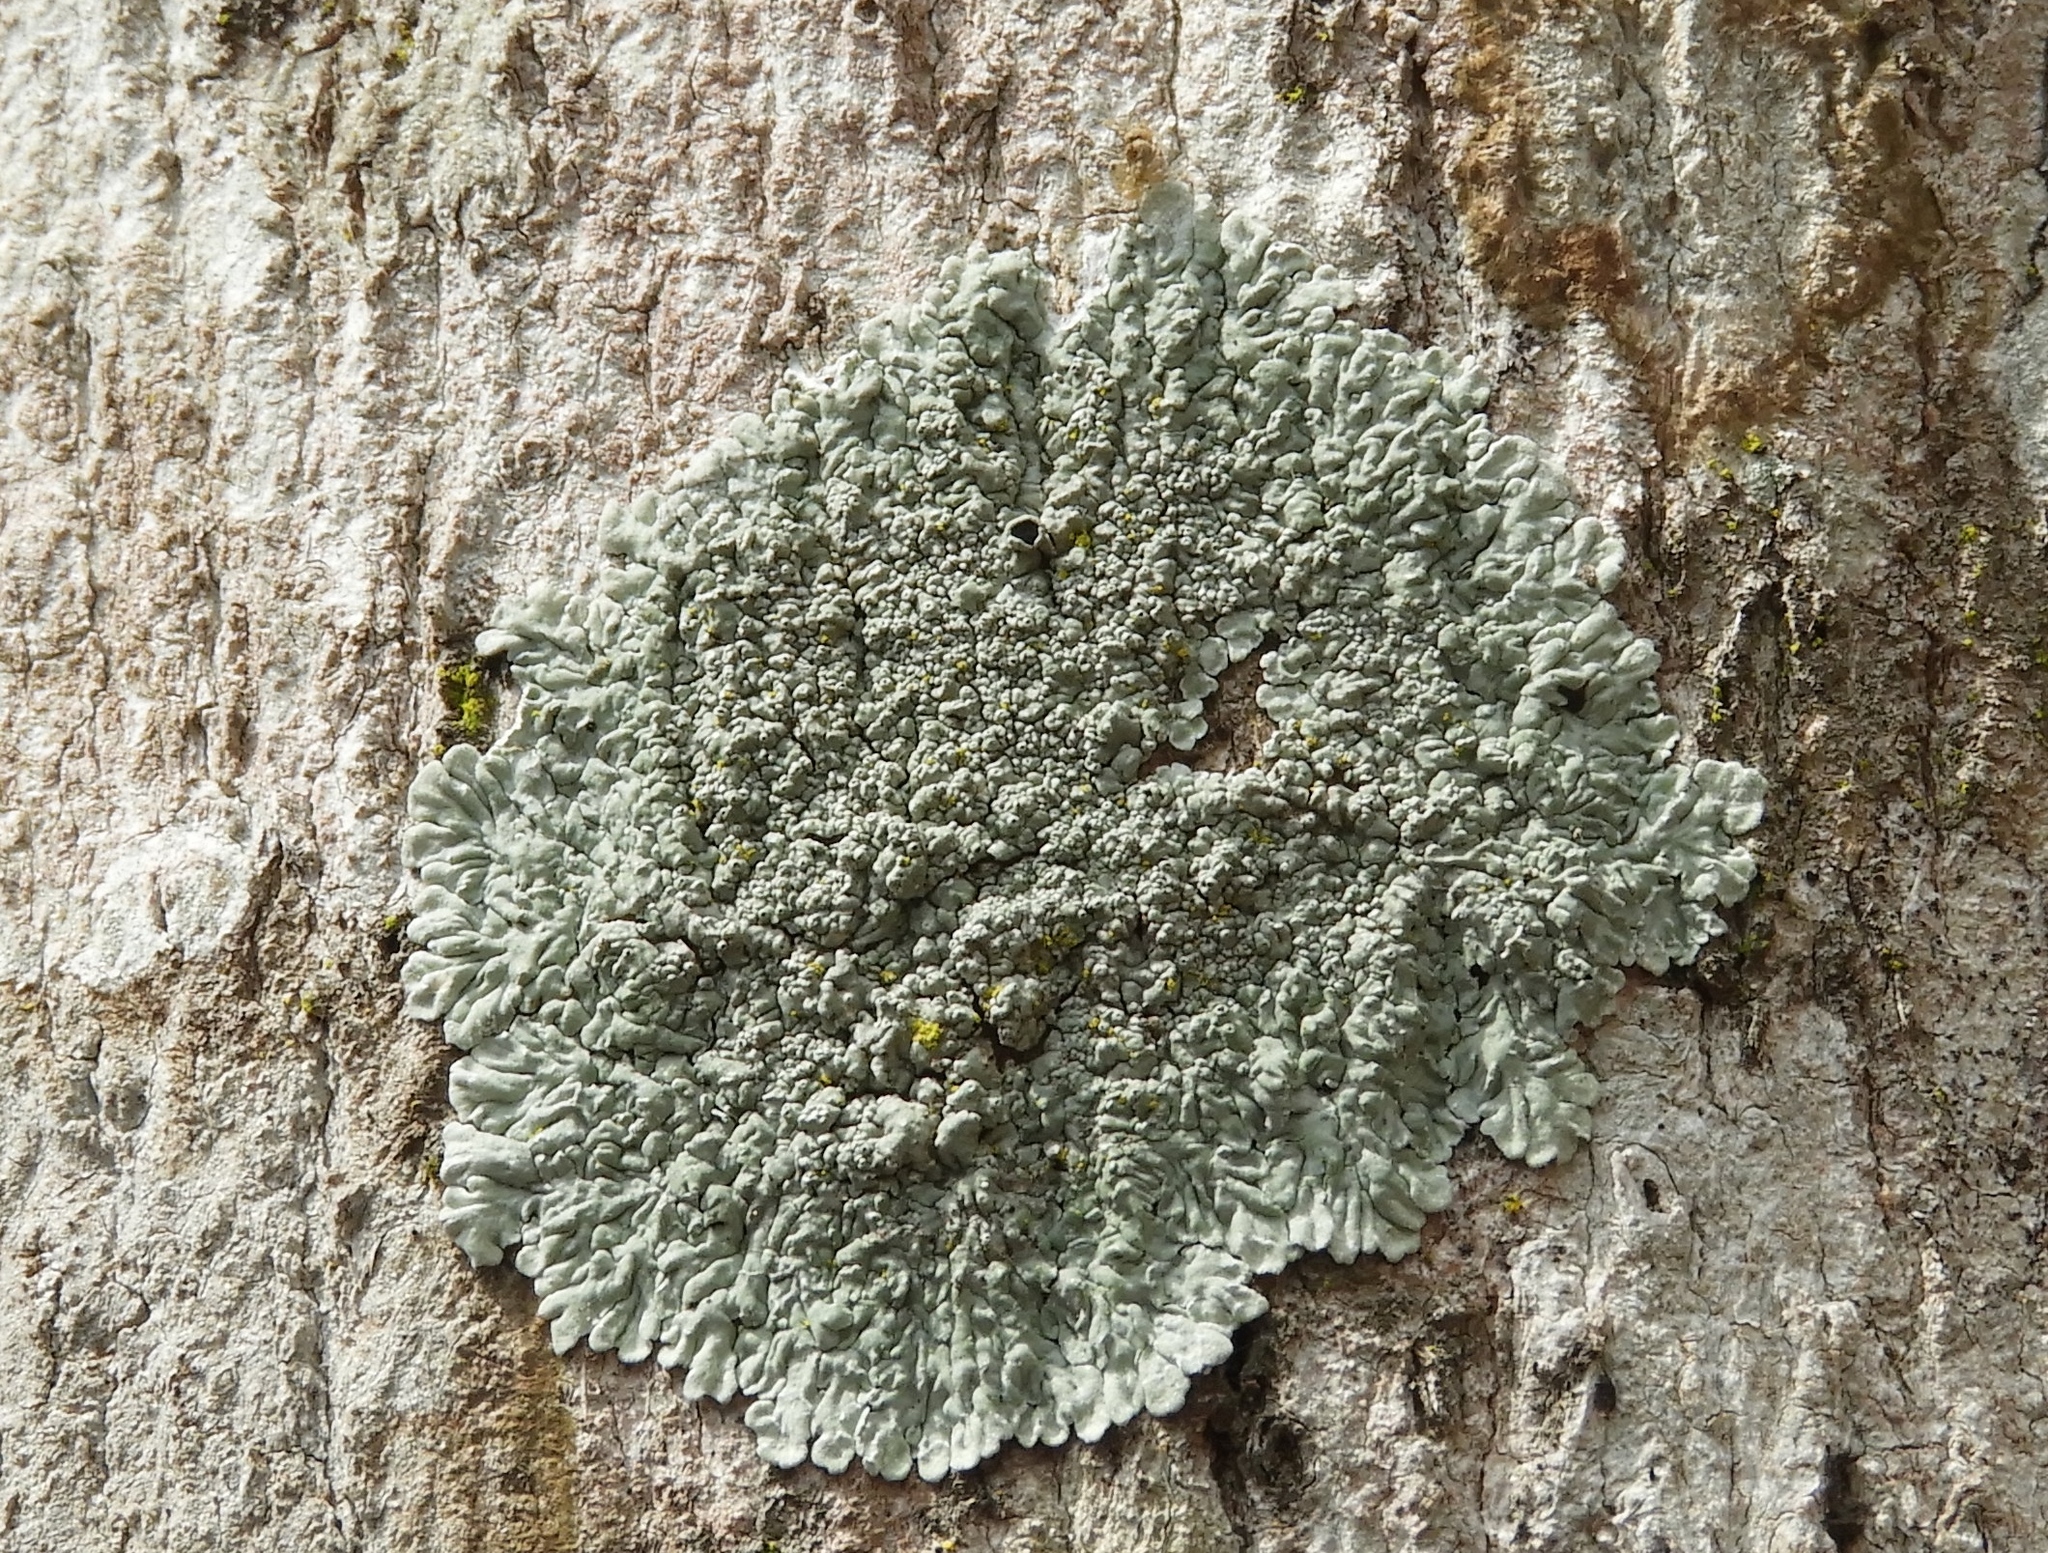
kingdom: Fungi
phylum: Ascomycota
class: Lecanoromycetes
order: Caliciales
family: Caliciaceae
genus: Dirinaria
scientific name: Dirinaria
